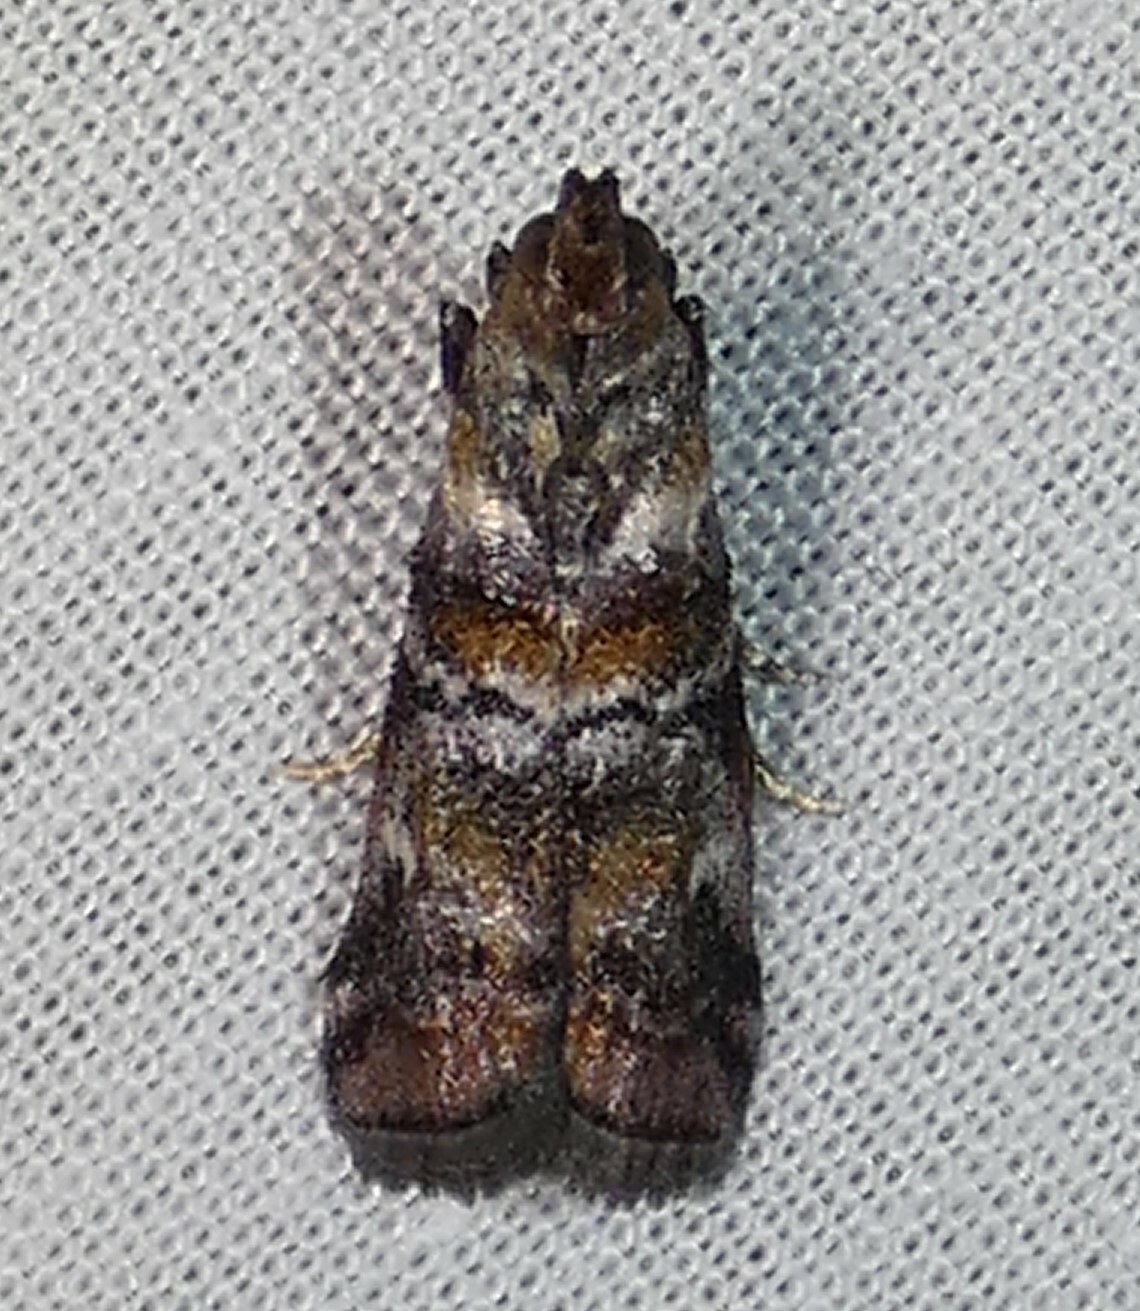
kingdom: Animalia
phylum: Arthropoda
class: Insecta
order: Lepidoptera
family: Pyralidae
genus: Dioryctria
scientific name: Dioryctria amatella
